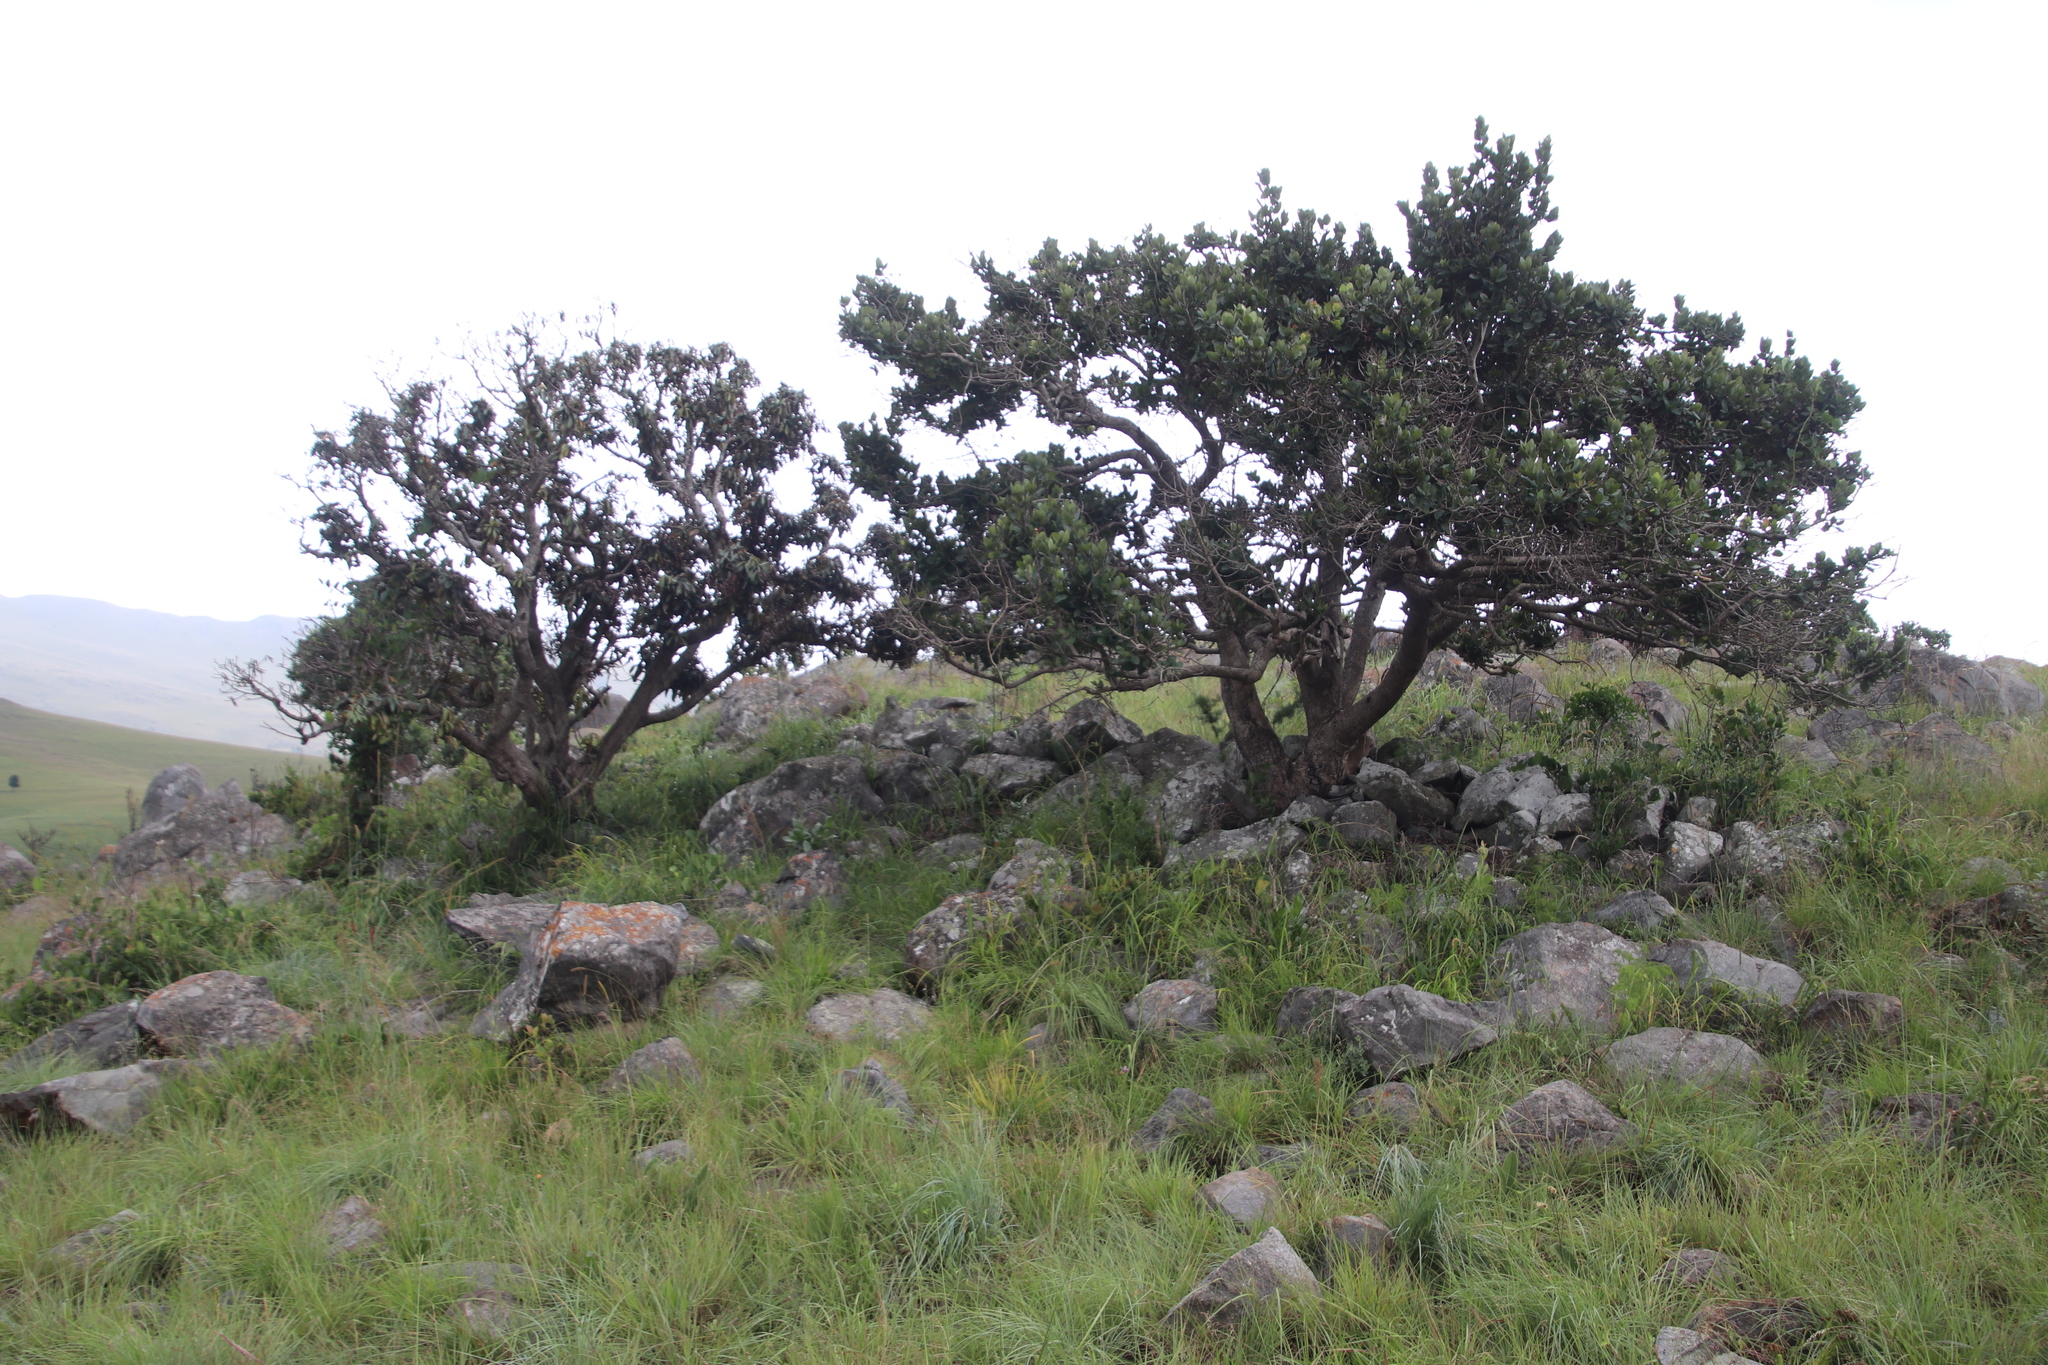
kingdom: Plantae
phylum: Tracheophyta
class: Magnoliopsida
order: Myrtales
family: Myrtaceae
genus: Syzygium
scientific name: Syzygium cordatum
